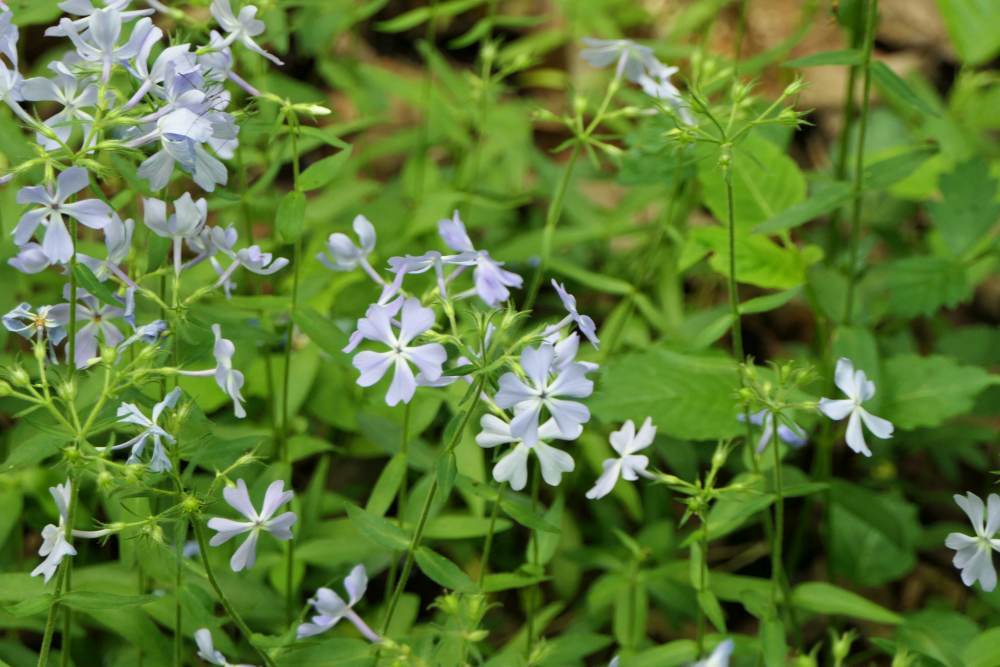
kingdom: Plantae
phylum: Tracheophyta
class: Magnoliopsida
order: Ericales
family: Polemoniaceae
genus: Phlox
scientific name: Phlox divaricata
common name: Blue phlox
